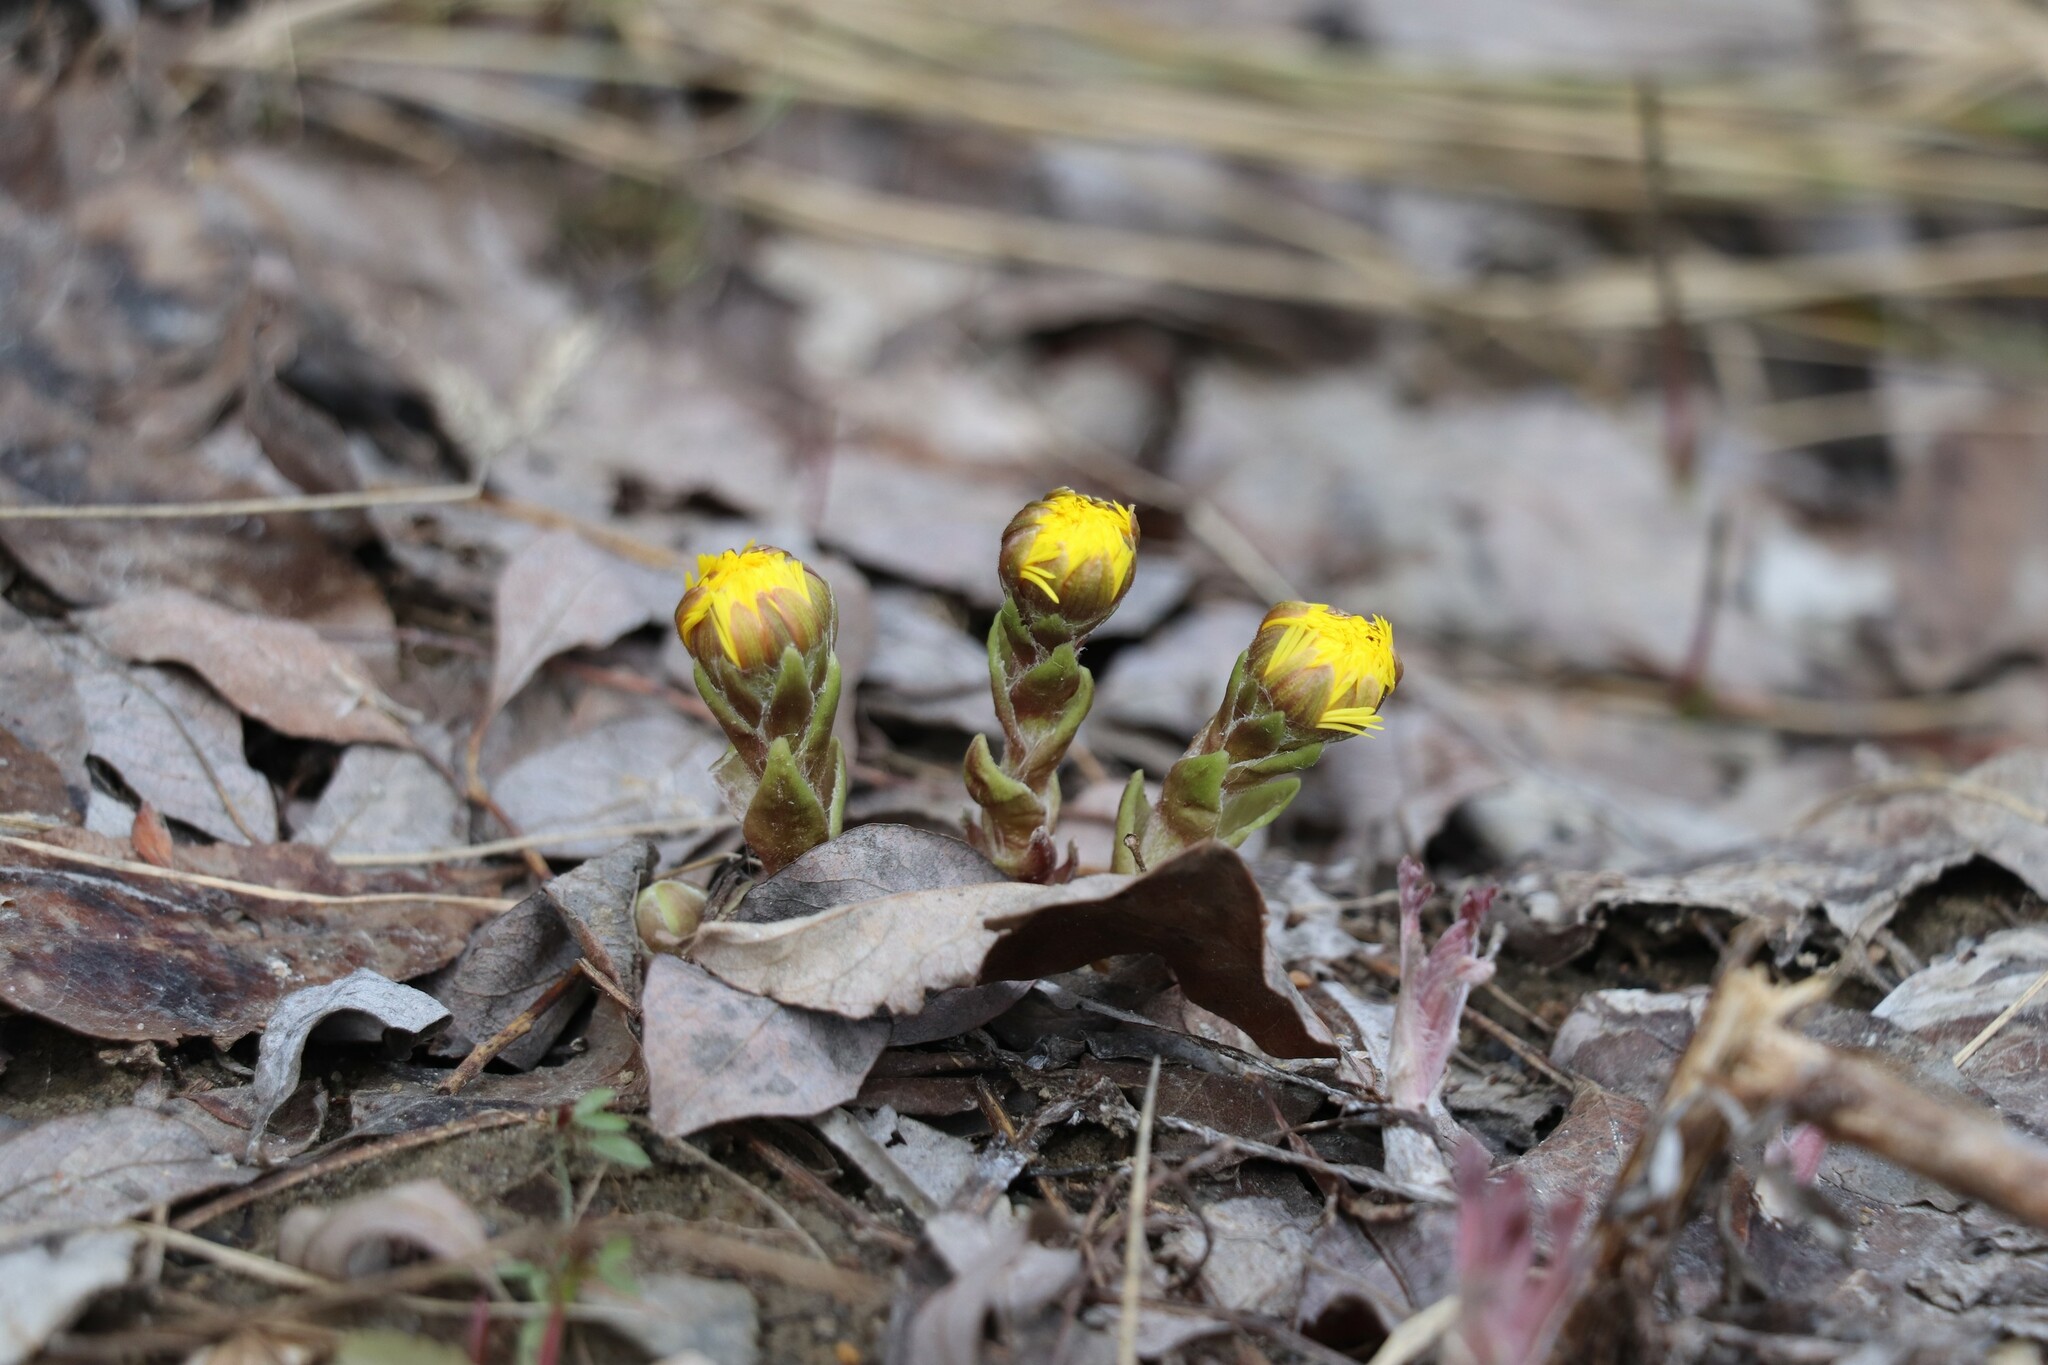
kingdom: Plantae
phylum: Tracheophyta
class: Magnoliopsida
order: Asterales
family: Asteraceae
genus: Tussilago
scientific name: Tussilago farfara
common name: Coltsfoot
